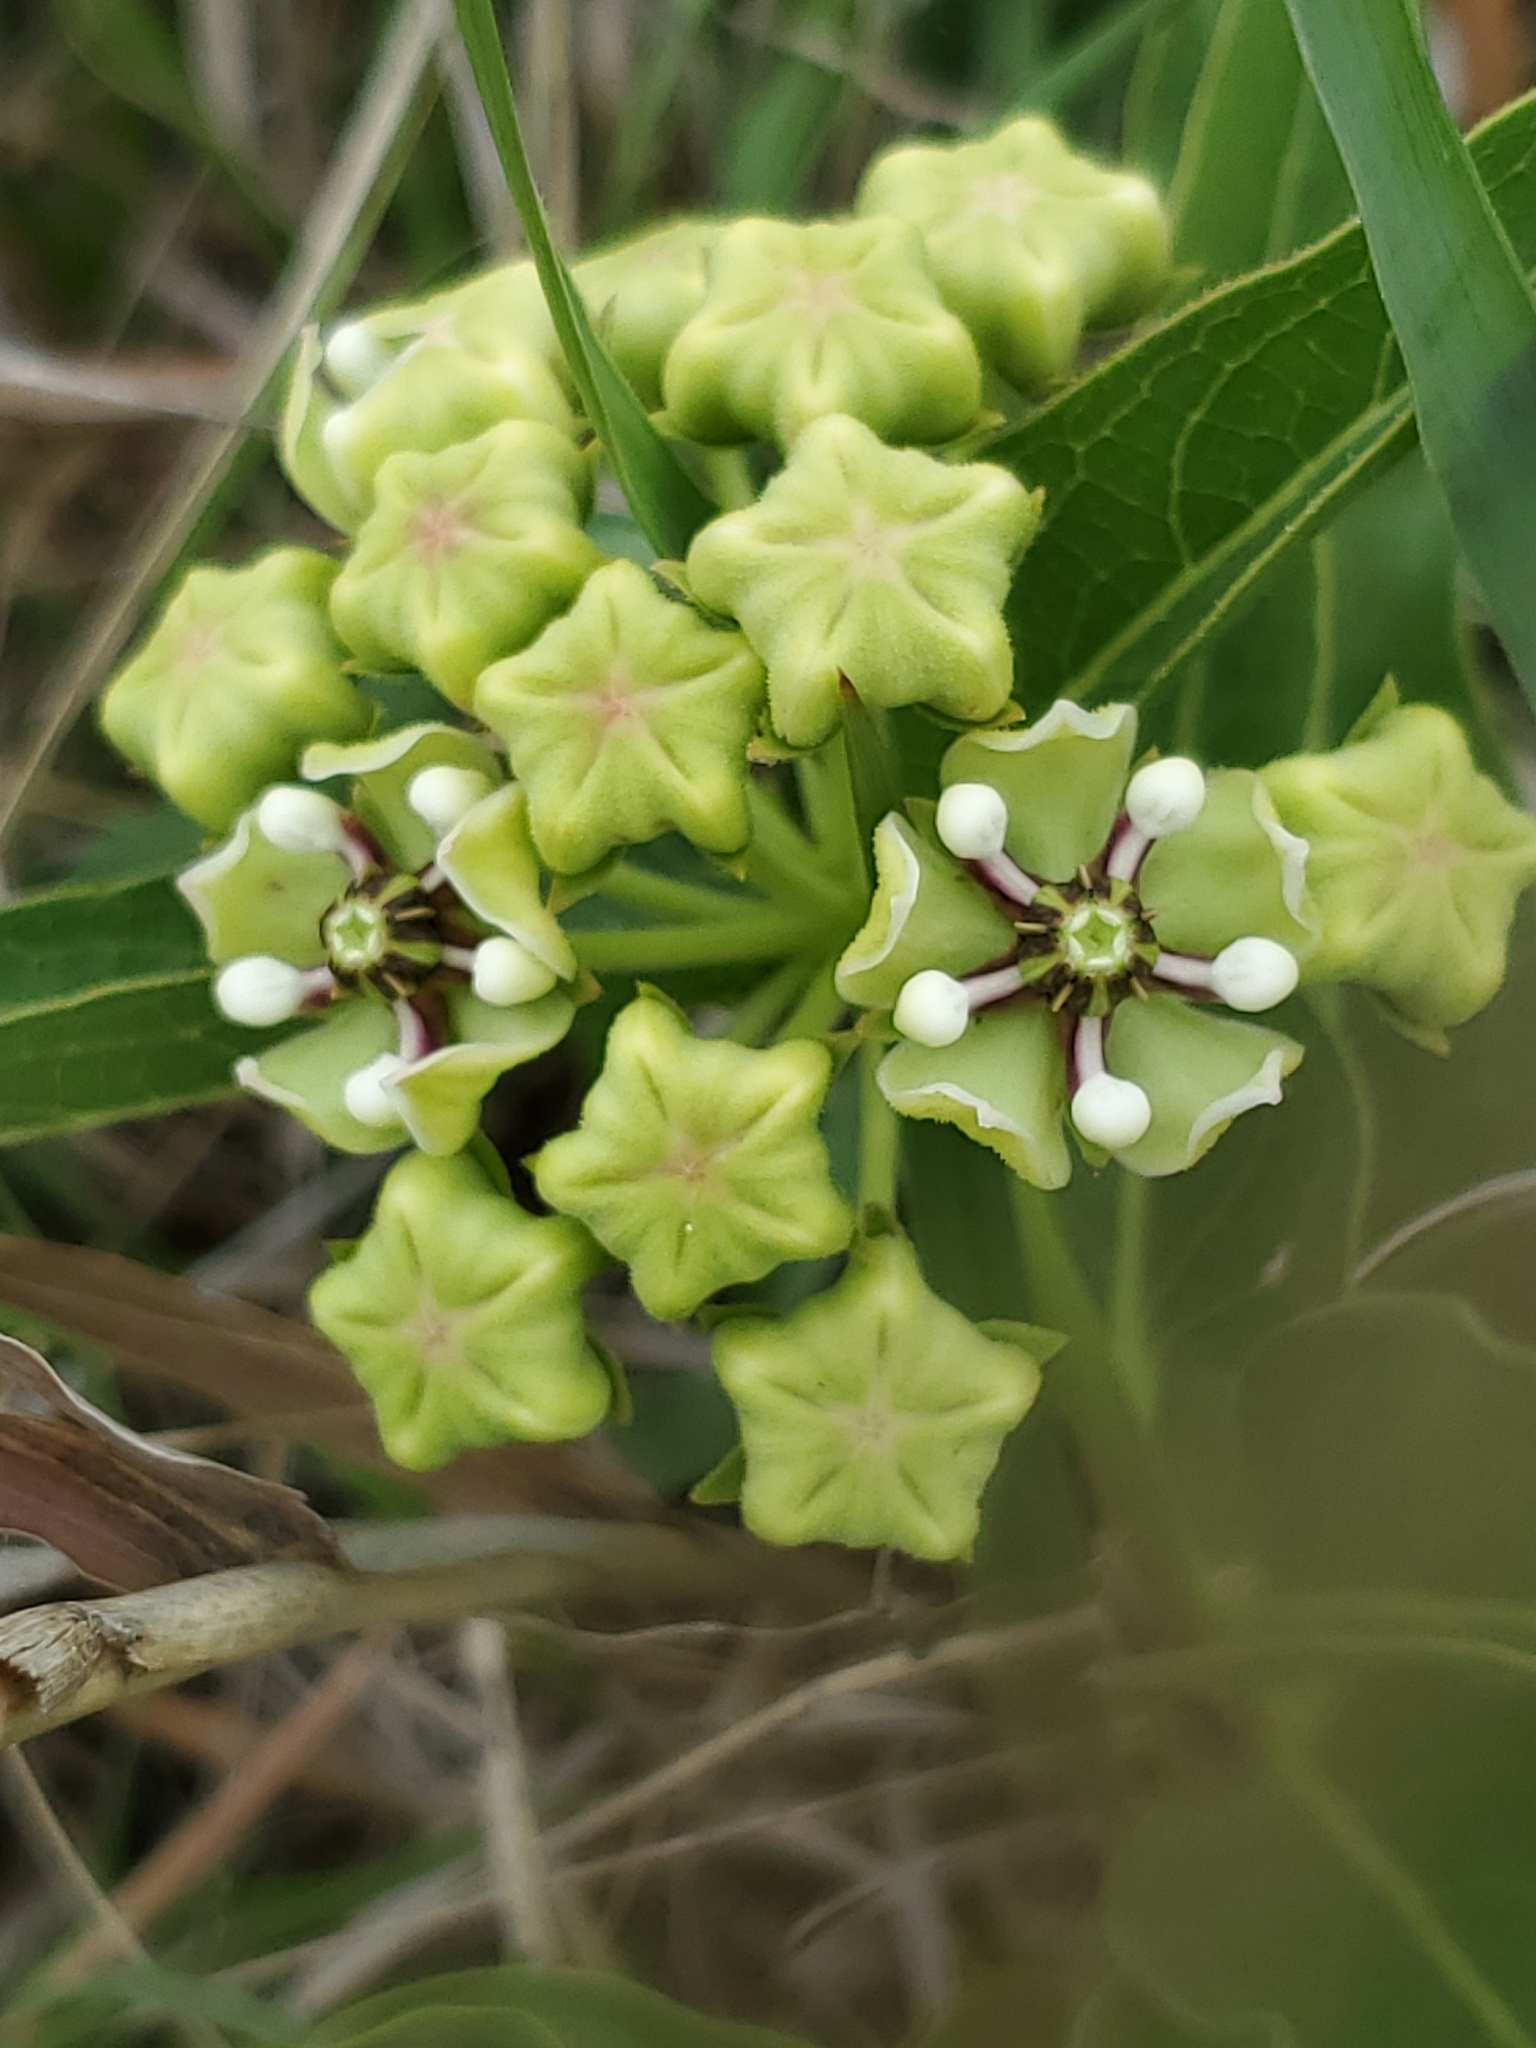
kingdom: Plantae
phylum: Tracheophyta
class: Magnoliopsida
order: Gentianales
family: Apocynaceae
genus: Asclepias
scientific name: Asclepias asperula
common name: Antelope horns
